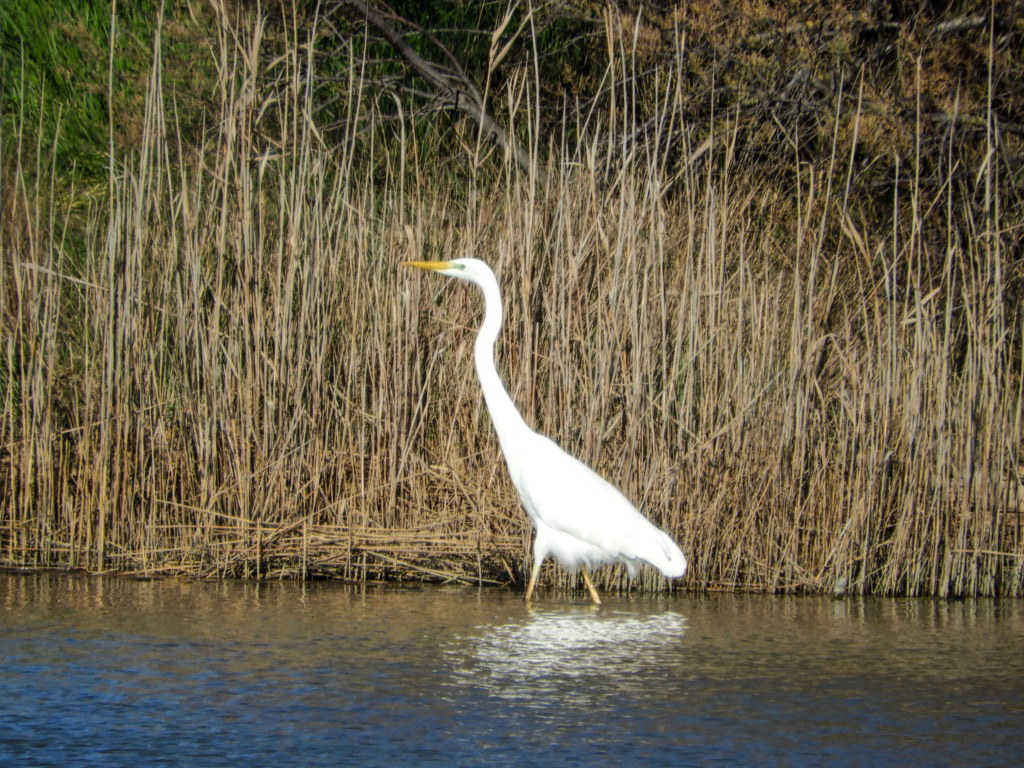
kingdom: Animalia
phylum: Chordata
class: Aves
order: Pelecaniformes
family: Ardeidae
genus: Ardea
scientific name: Ardea alba
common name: Great egret
